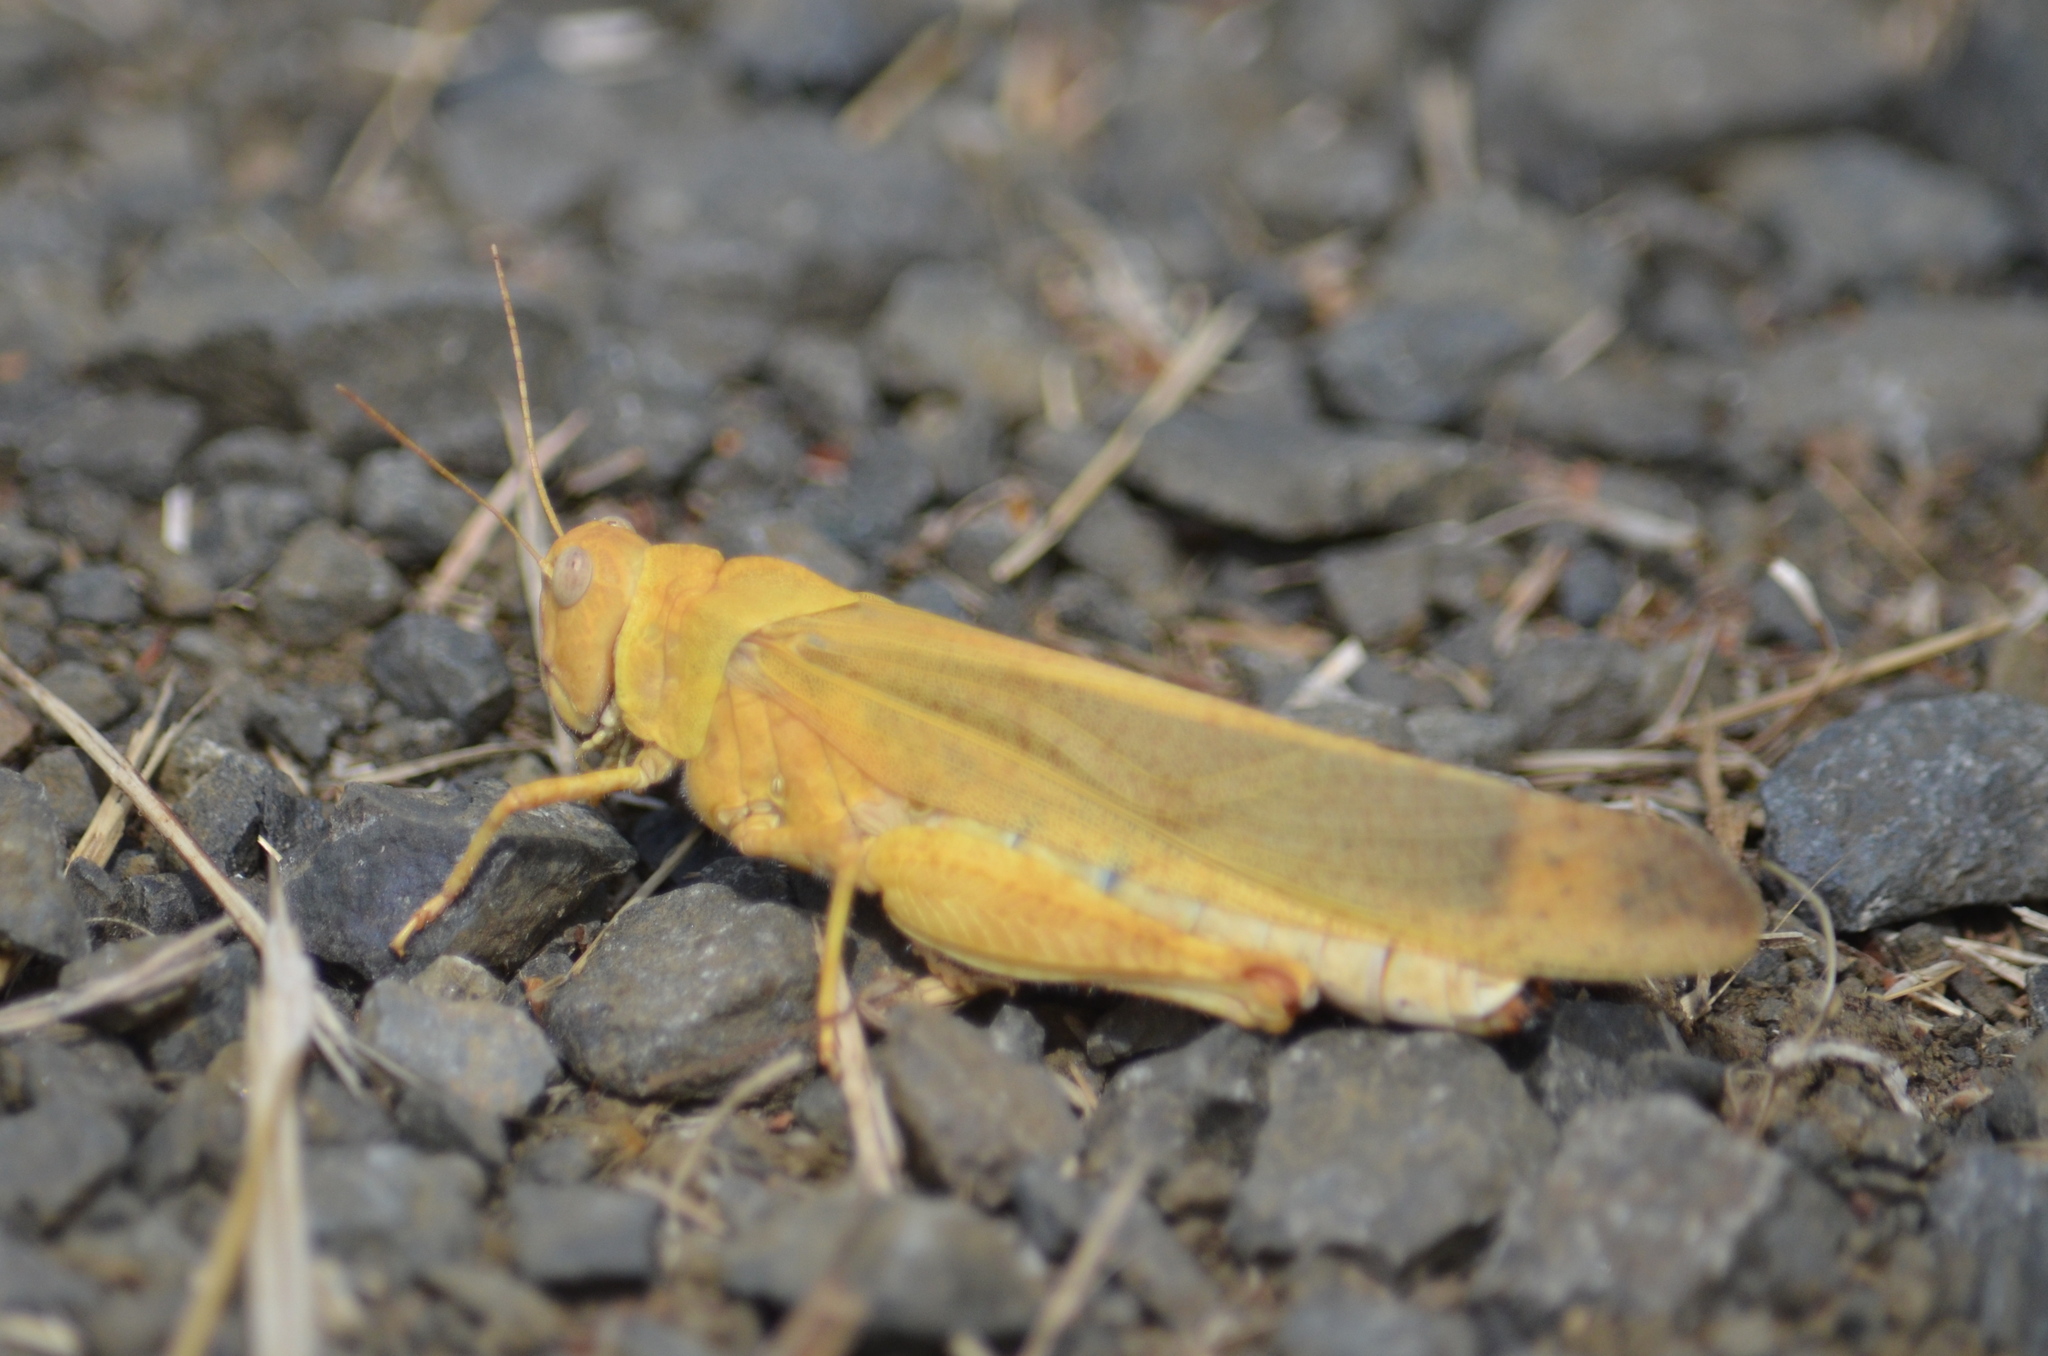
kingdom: Animalia
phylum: Arthropoda
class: Insecta
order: Orthoptera
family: Acrididae
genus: Dissosteira
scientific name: Dissosteira carolina
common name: Carolina grasshopper
